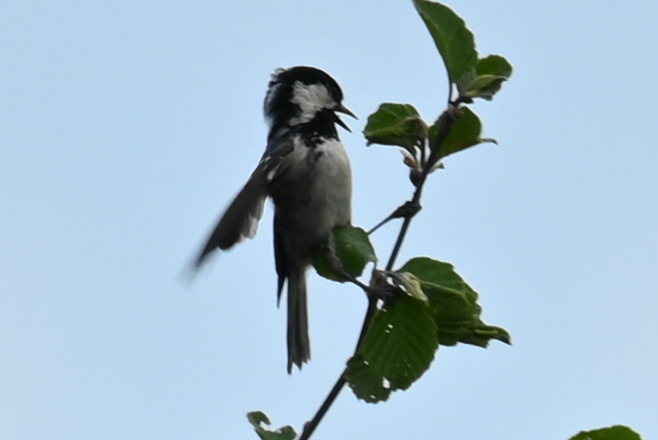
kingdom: Animalia
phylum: Chordata
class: Aves
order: Passeriformes
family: Paridae
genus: Periparus
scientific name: Periparus ater
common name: Coal tit
